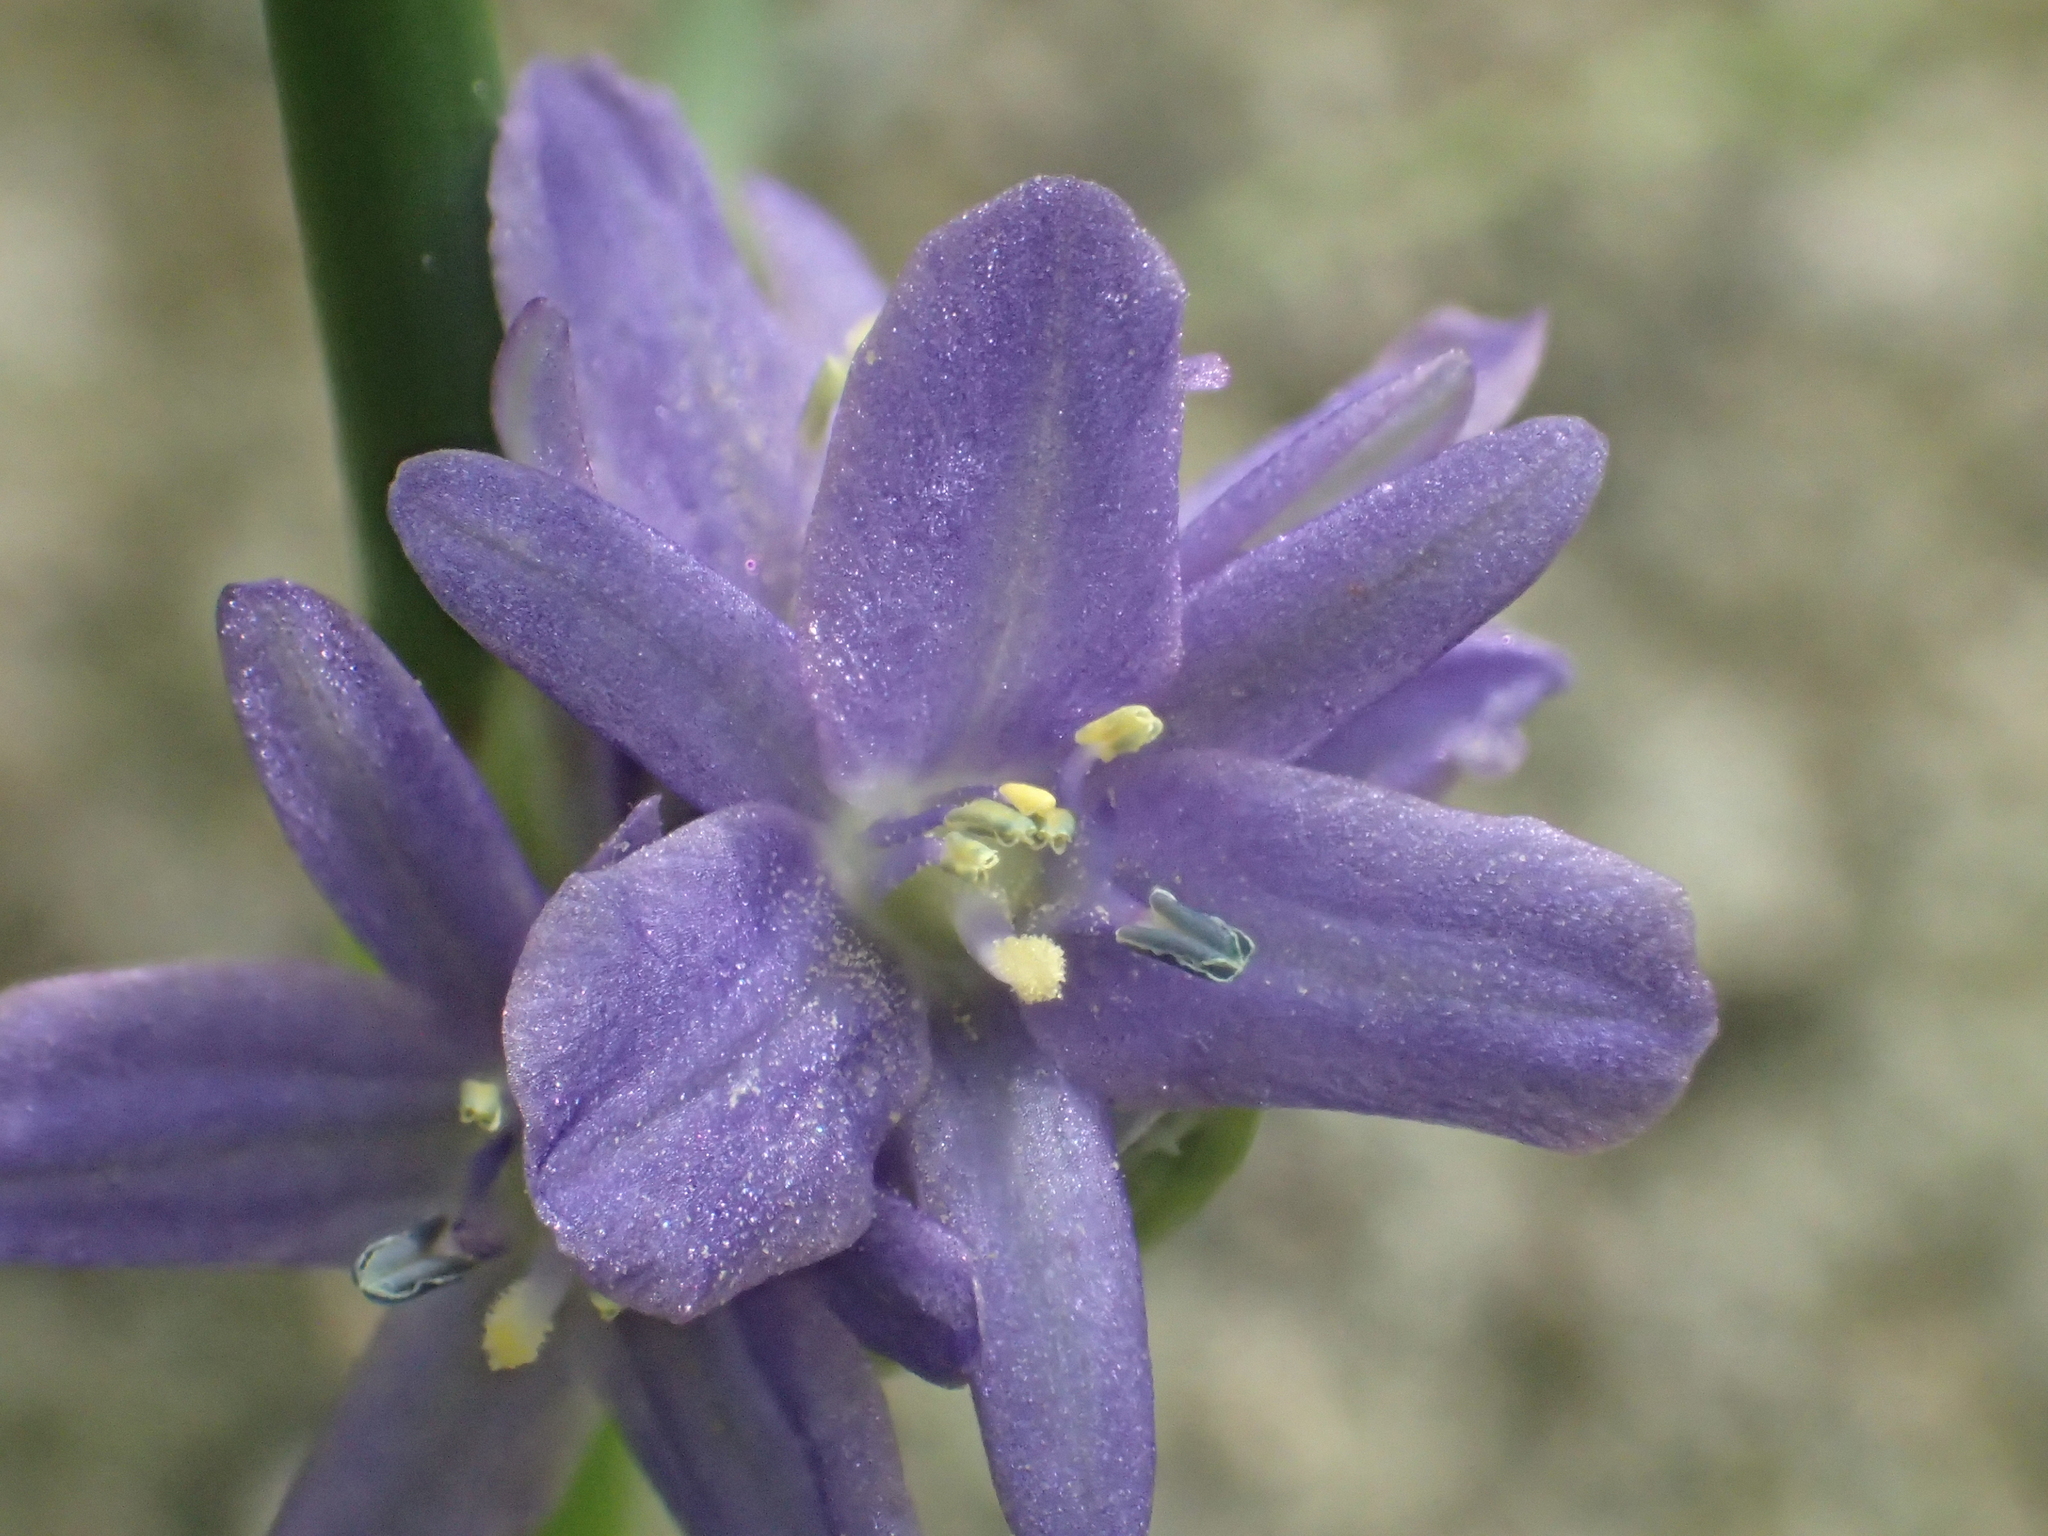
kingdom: Plantae
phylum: Tracheophyta
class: Liliopsida
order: Commelinales
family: Pontederiaceae
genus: Pontederia
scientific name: Pontederia vaginalis
